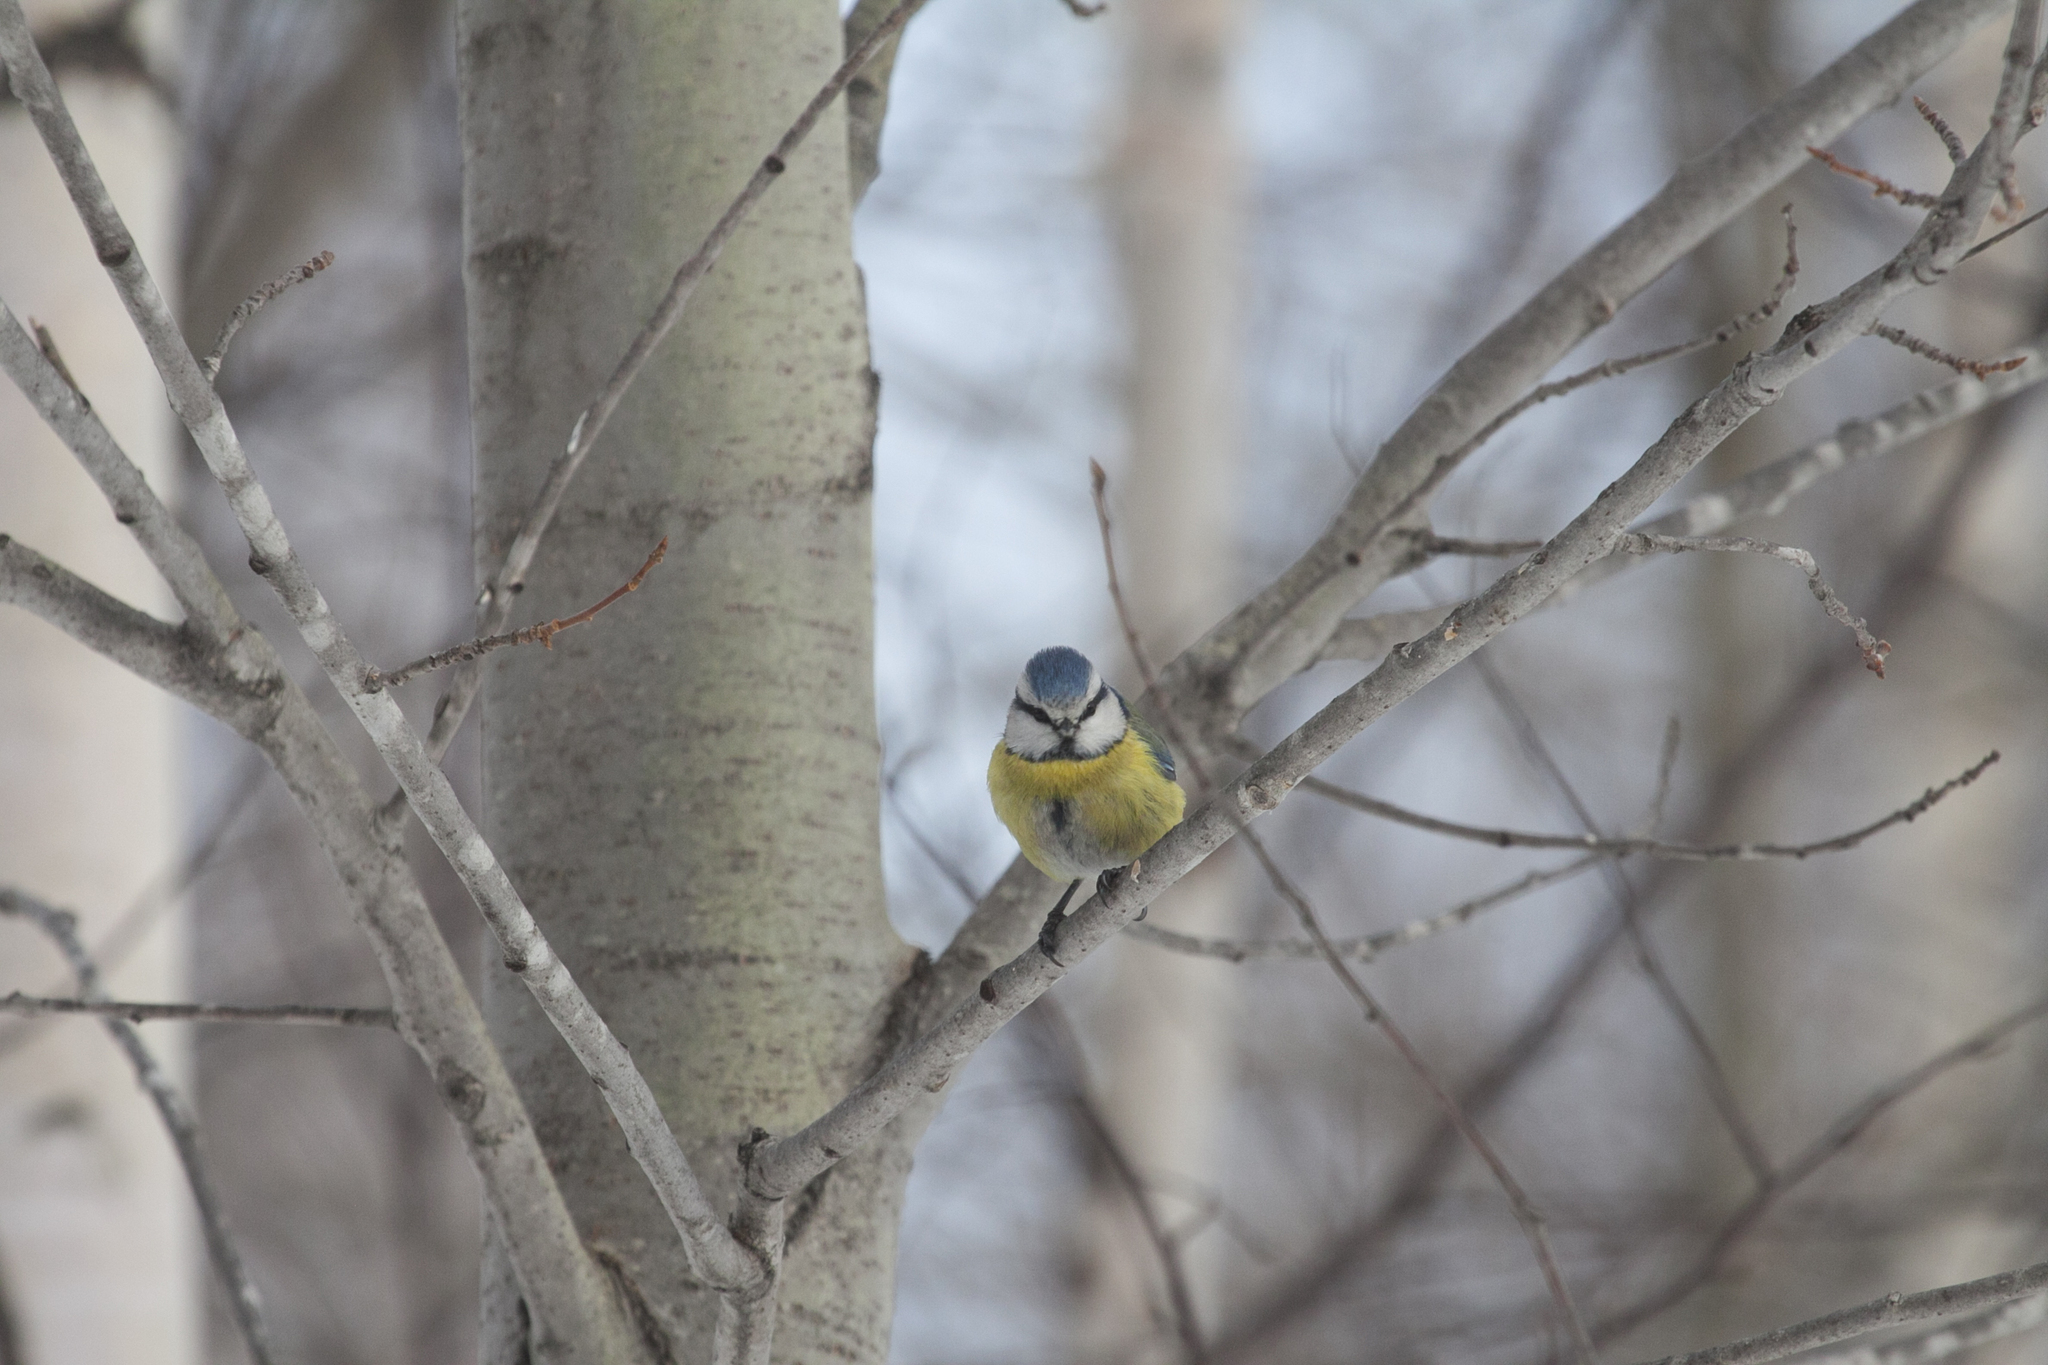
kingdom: Animalia
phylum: Chordata
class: Aves
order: Passeriformes
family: Paridae
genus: Cyanistes
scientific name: Cyanistes caeruleus
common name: Eurasian blue tit
